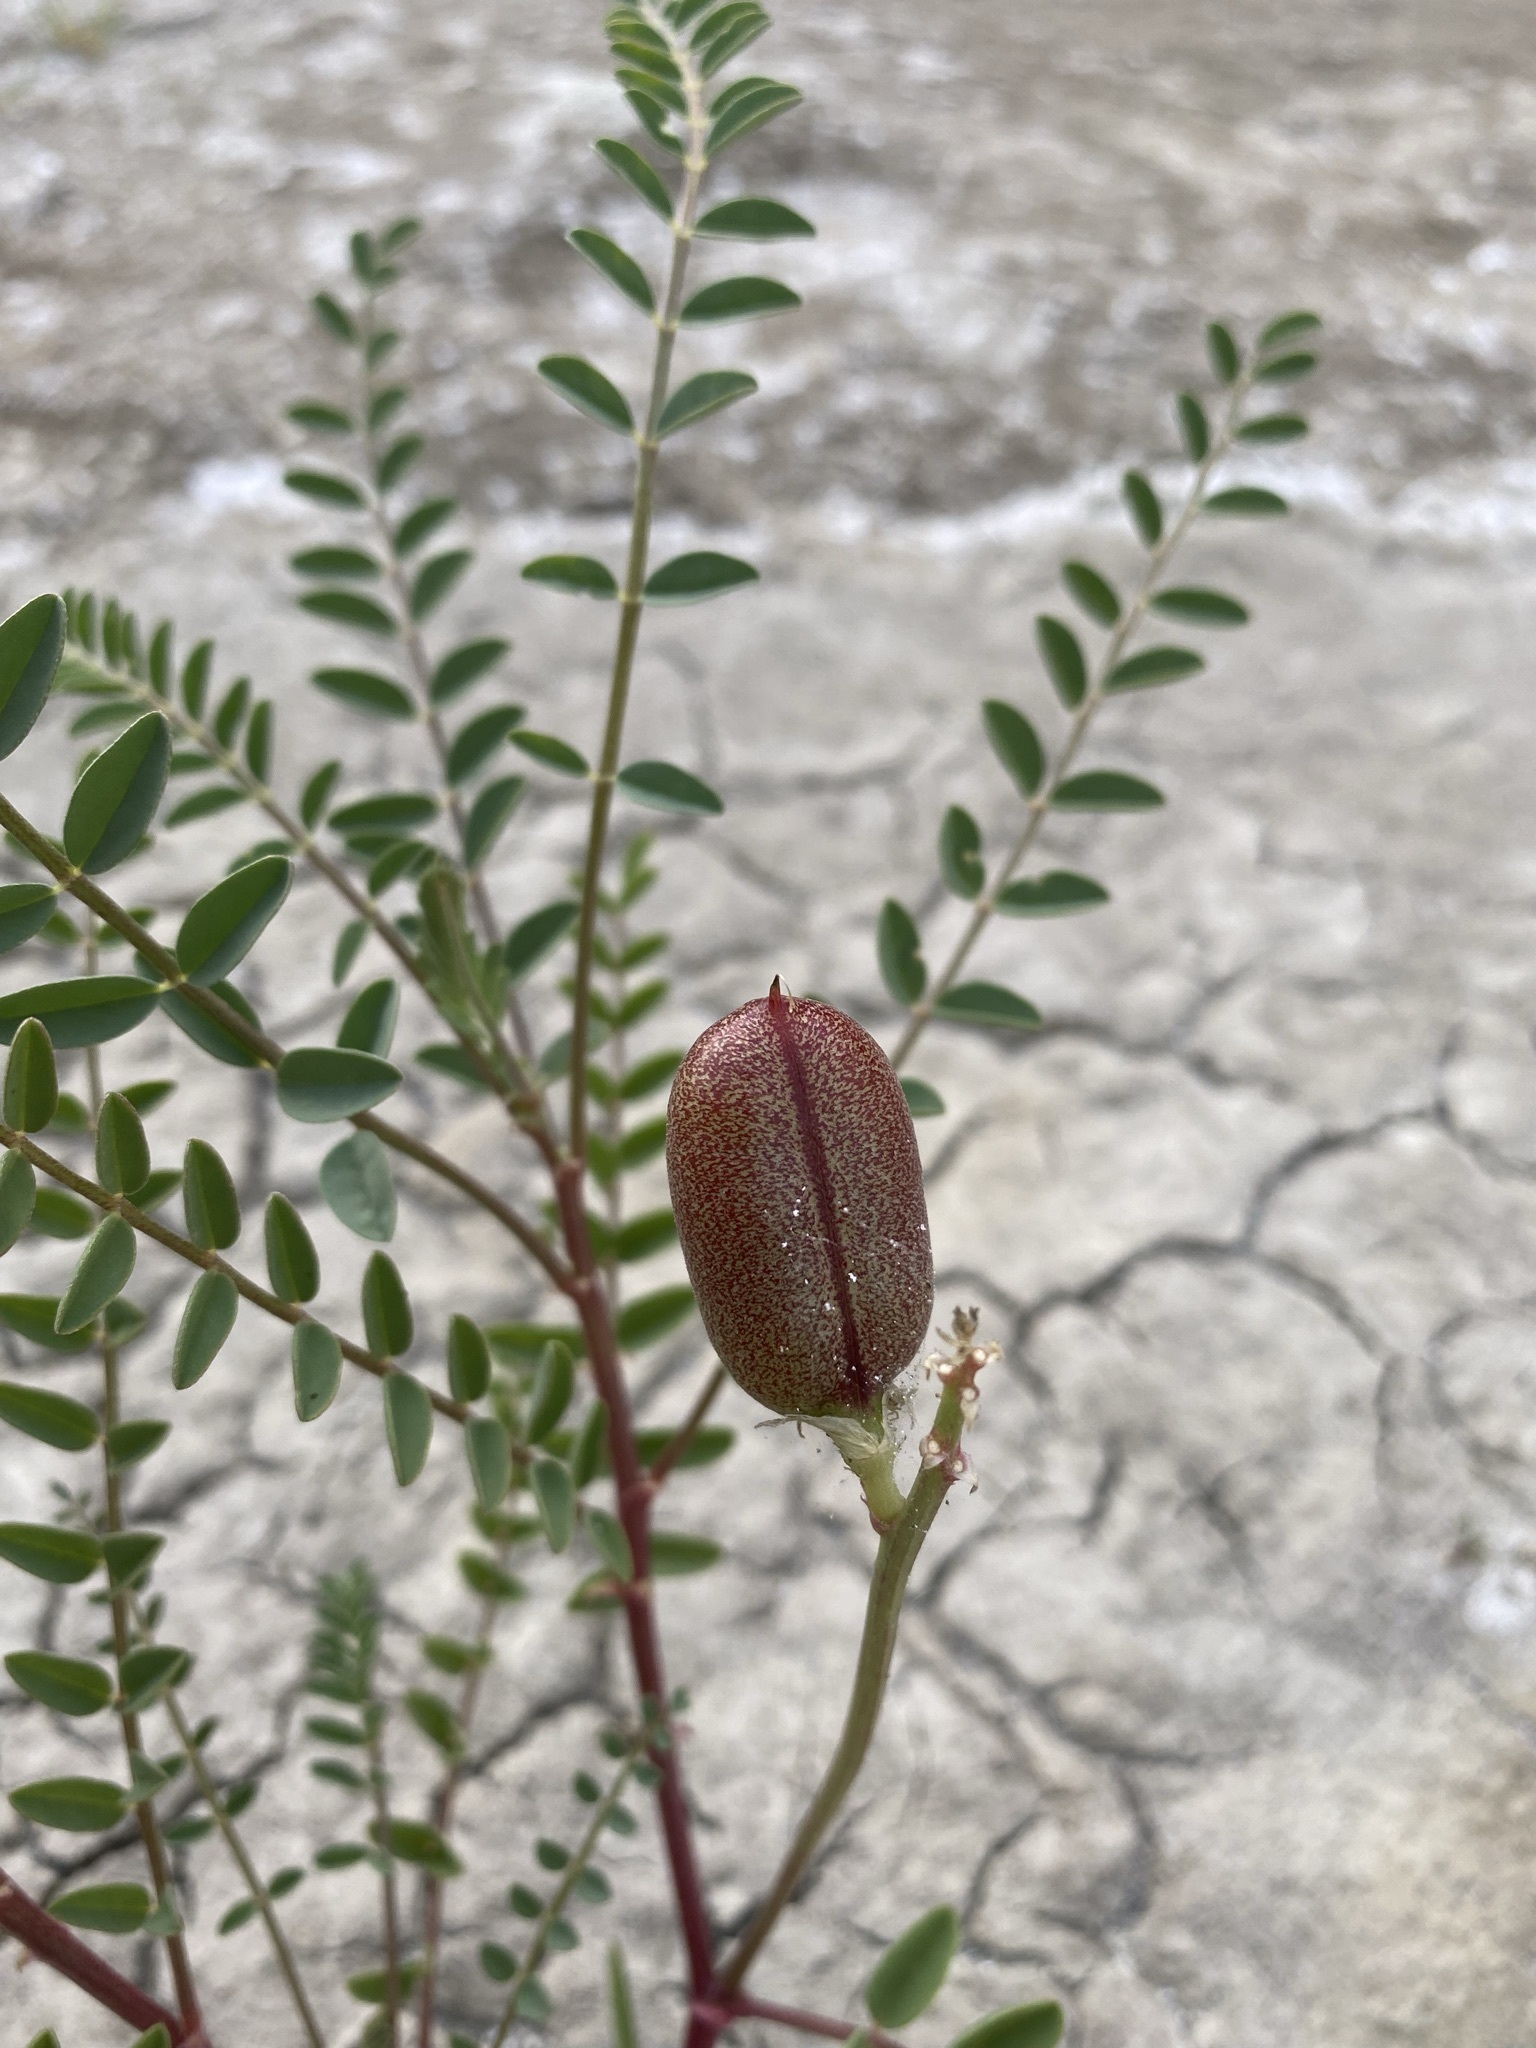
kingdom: Plantae
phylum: Tracheophyta
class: Magnoliopsida
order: Fabales
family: Fabaceae
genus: Astragalus
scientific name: Astragalus praelongus
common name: Stinking milk-vetch
